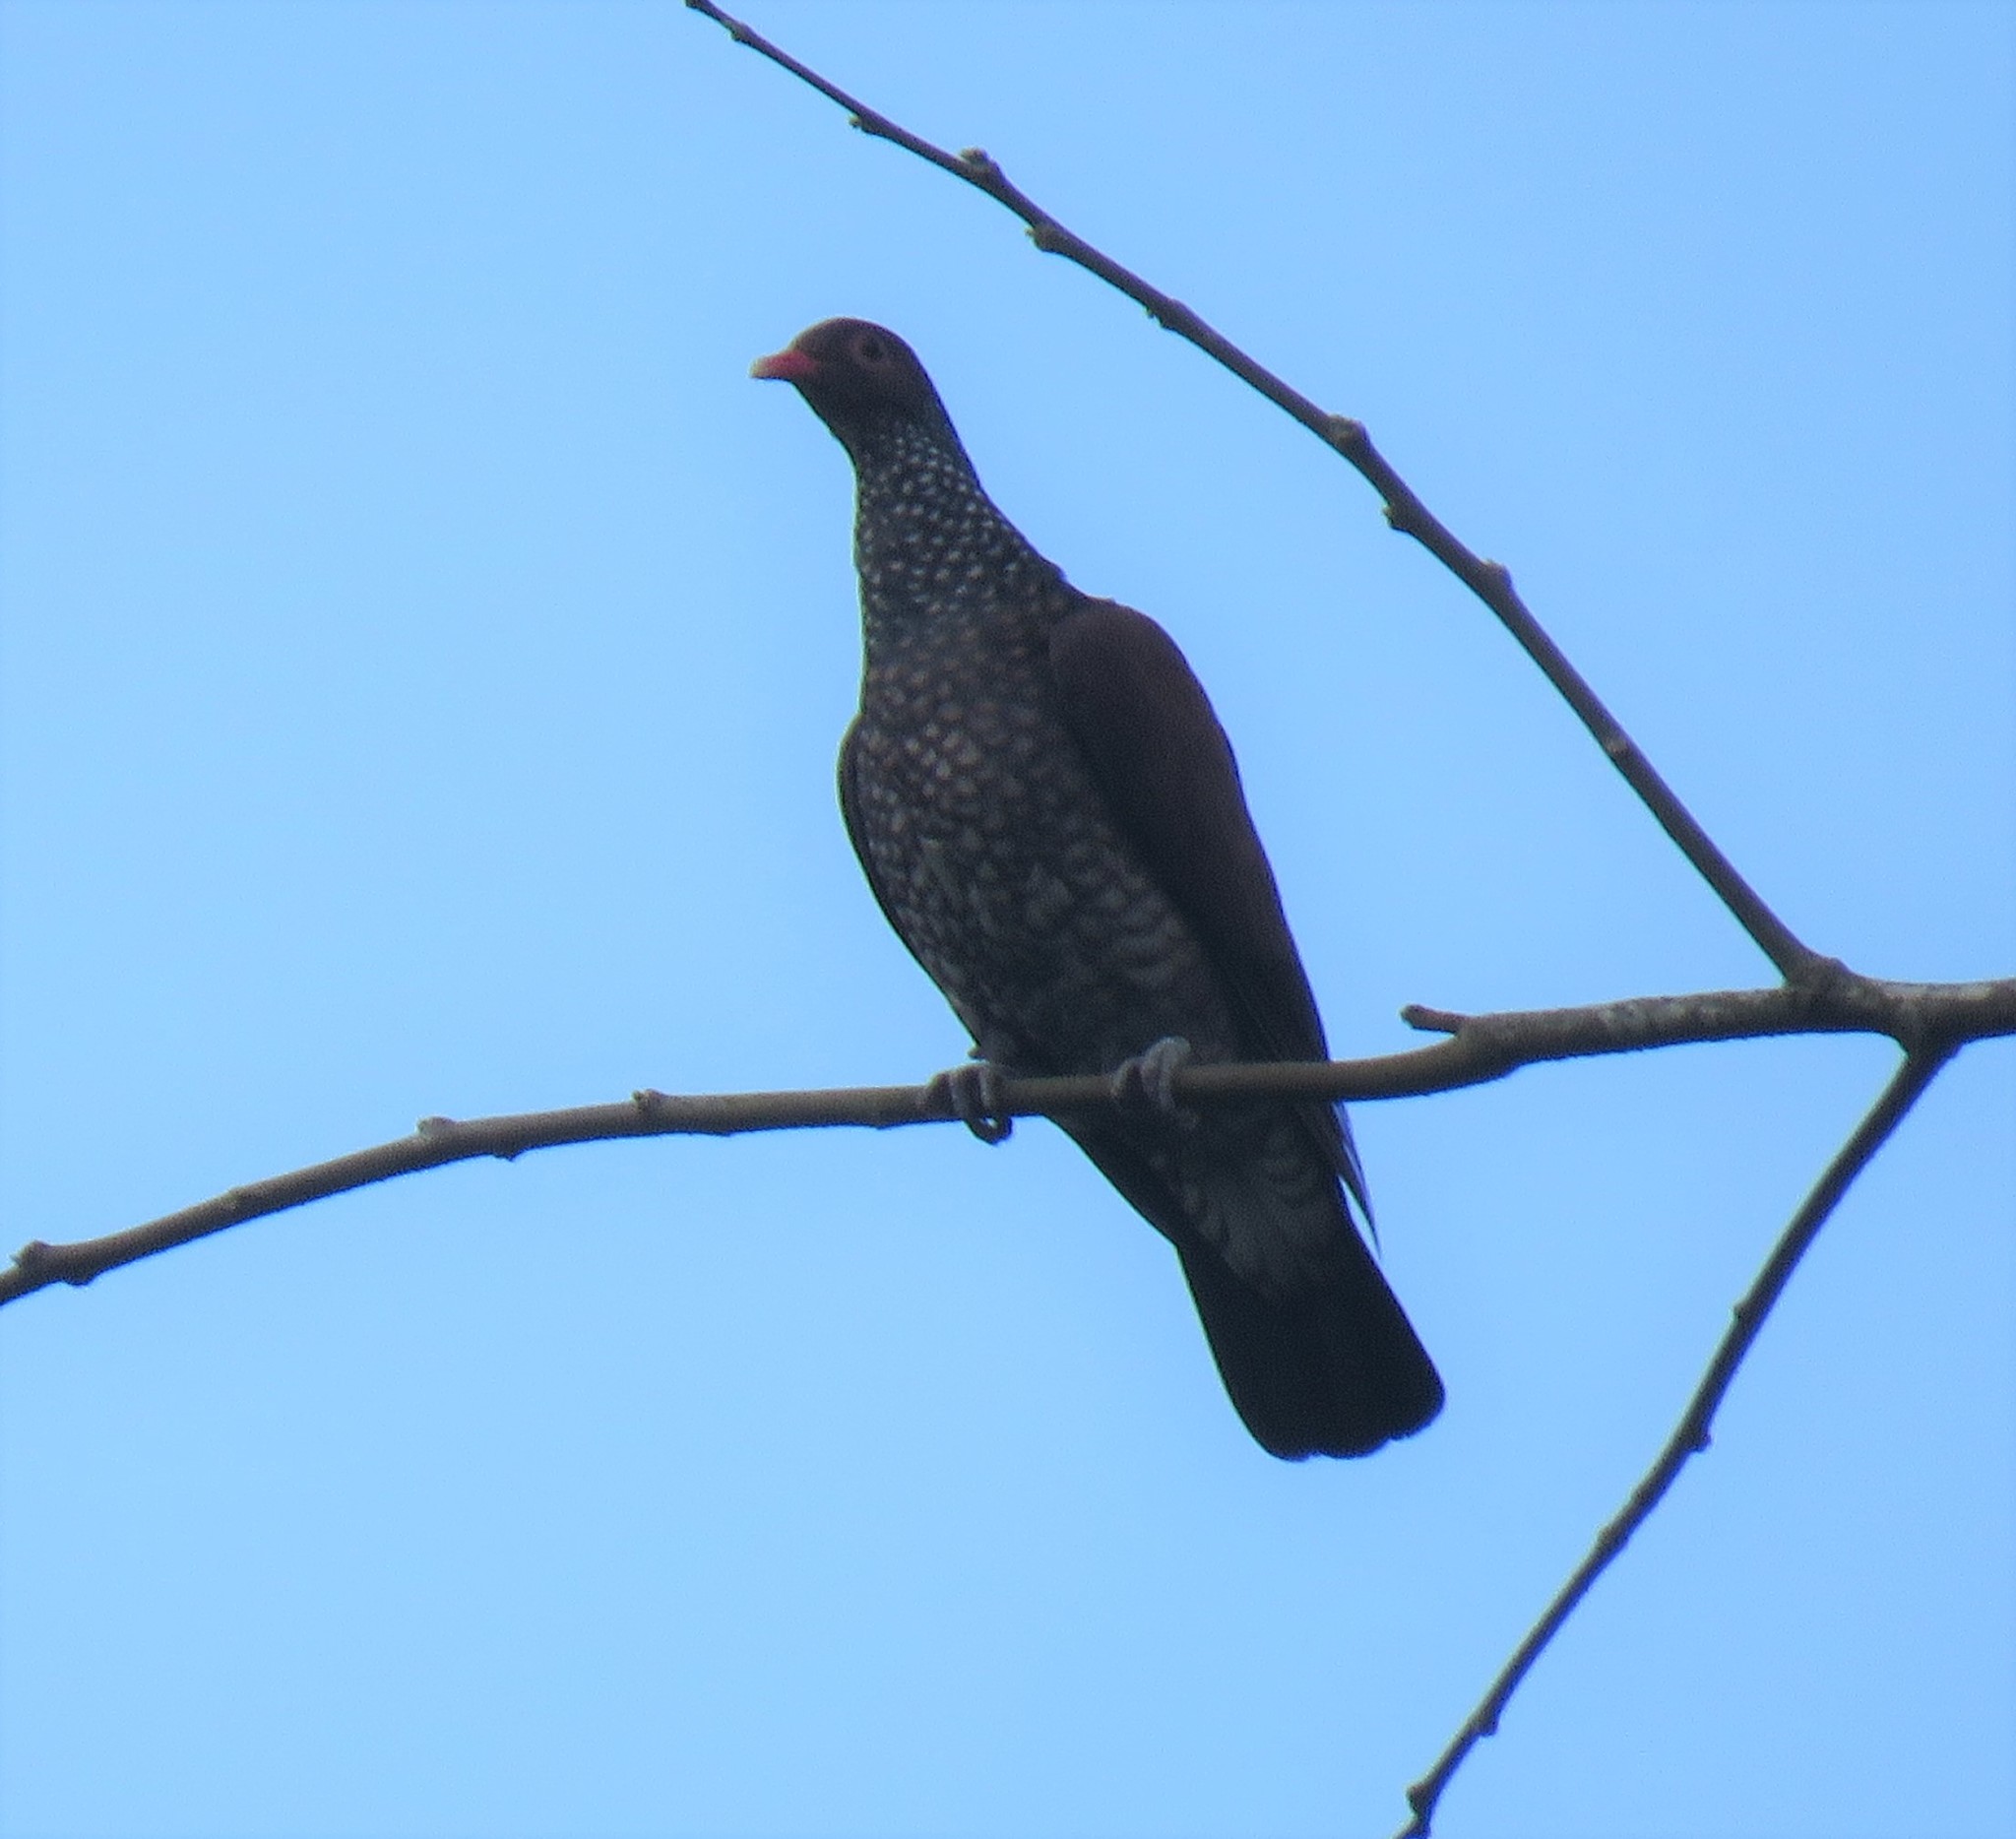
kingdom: Animalia
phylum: Chordata
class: Aves
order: Columbiformes
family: Columbidae
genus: Patagioenas
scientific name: Patagioenas speciosa
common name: Scaled pigeon
